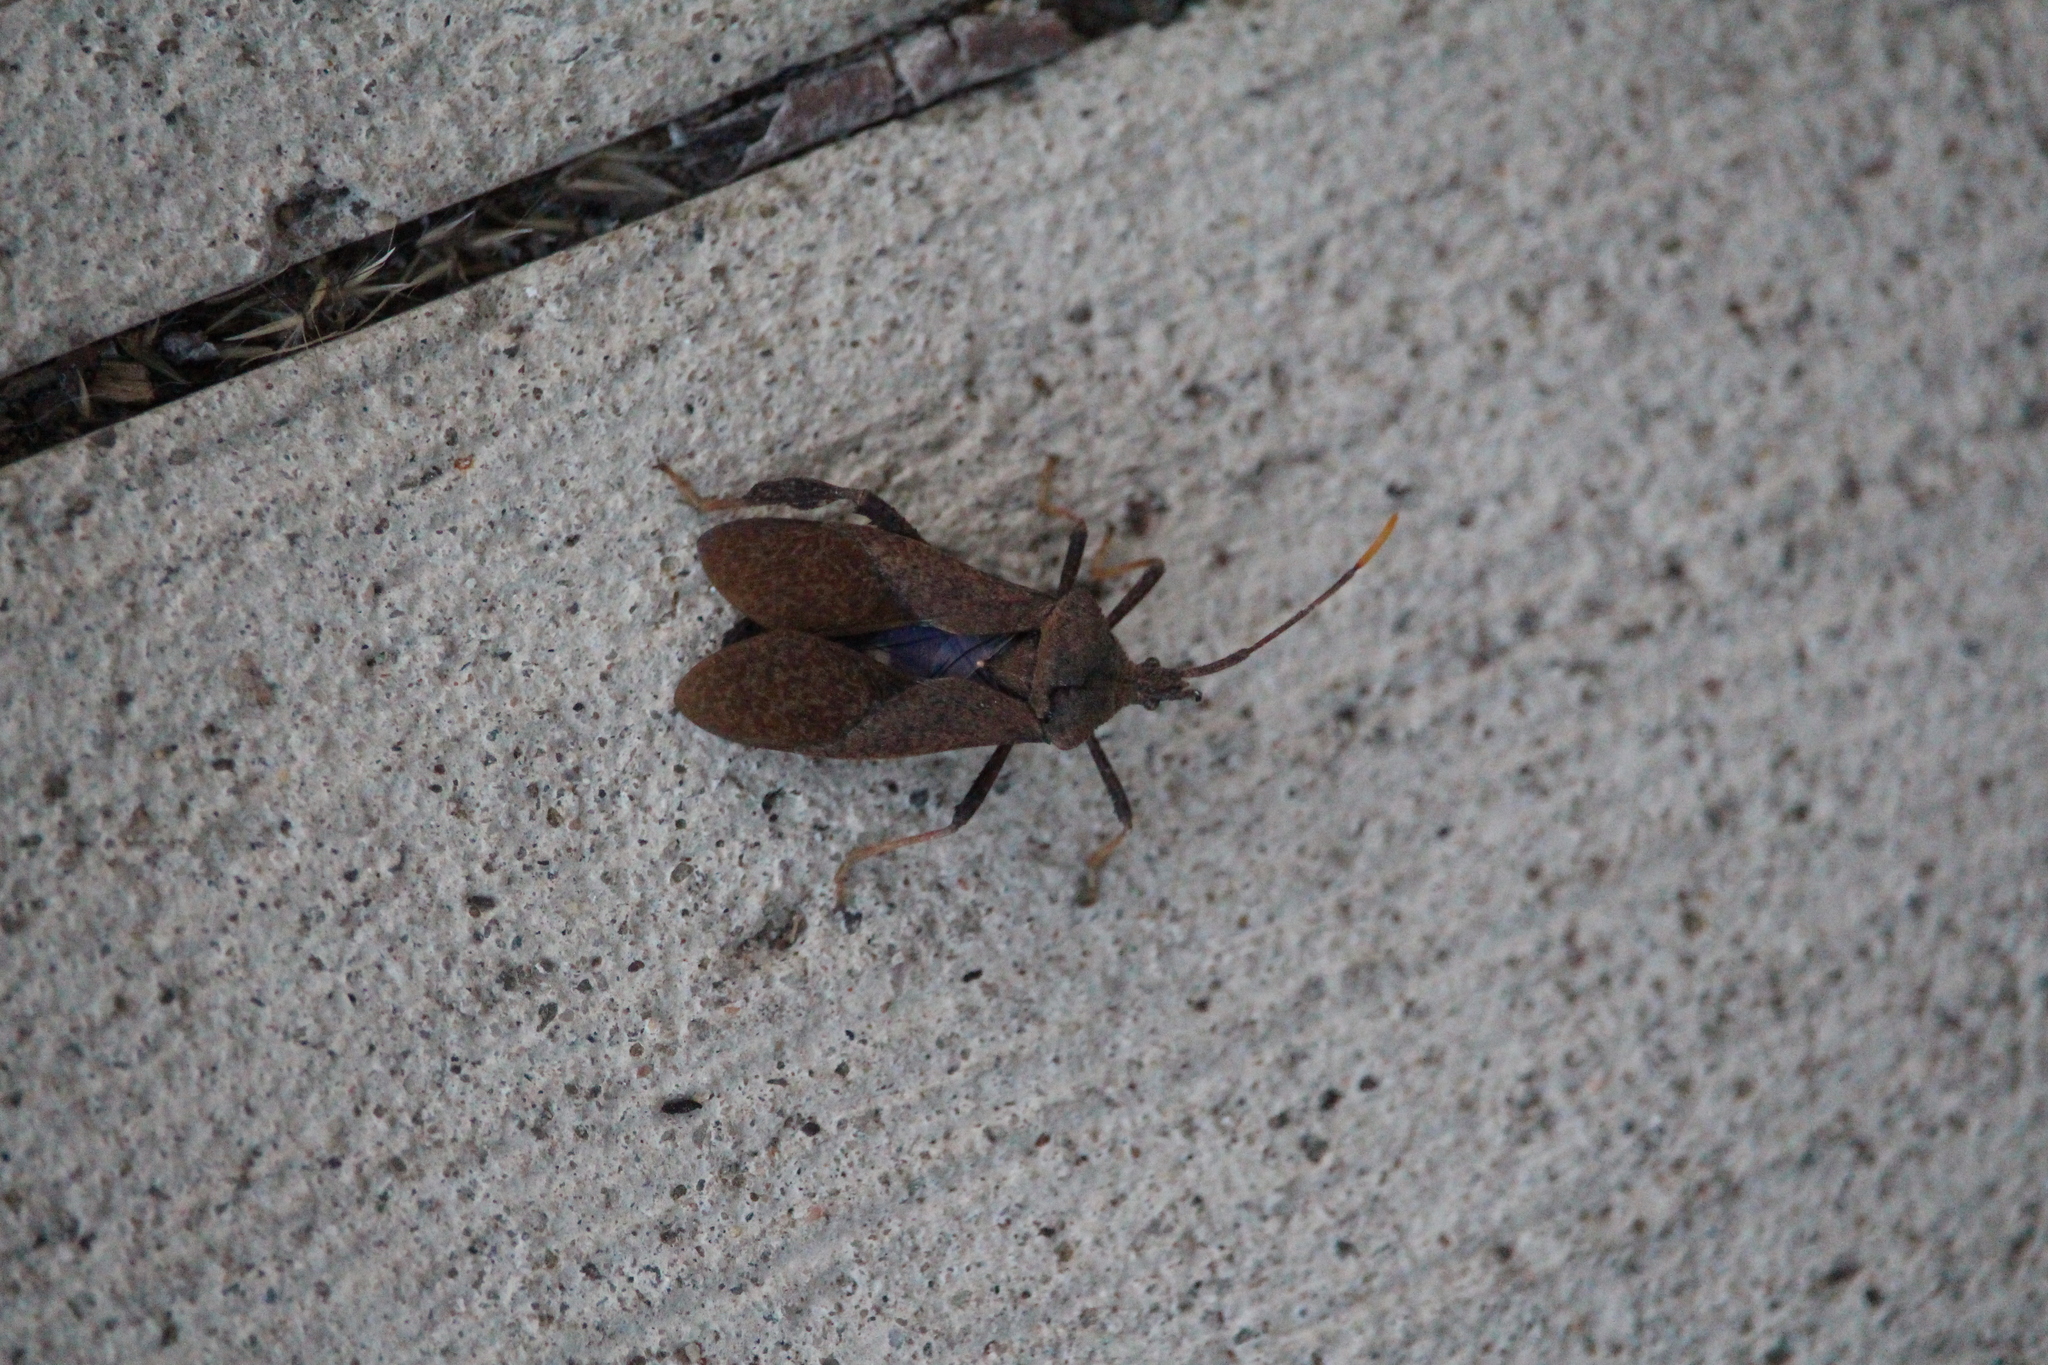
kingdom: Animalia
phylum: Arthropoda
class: Insecta
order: Hemiptera
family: Coreidae
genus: Acanthocephala
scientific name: Acanthocephala terminalis
